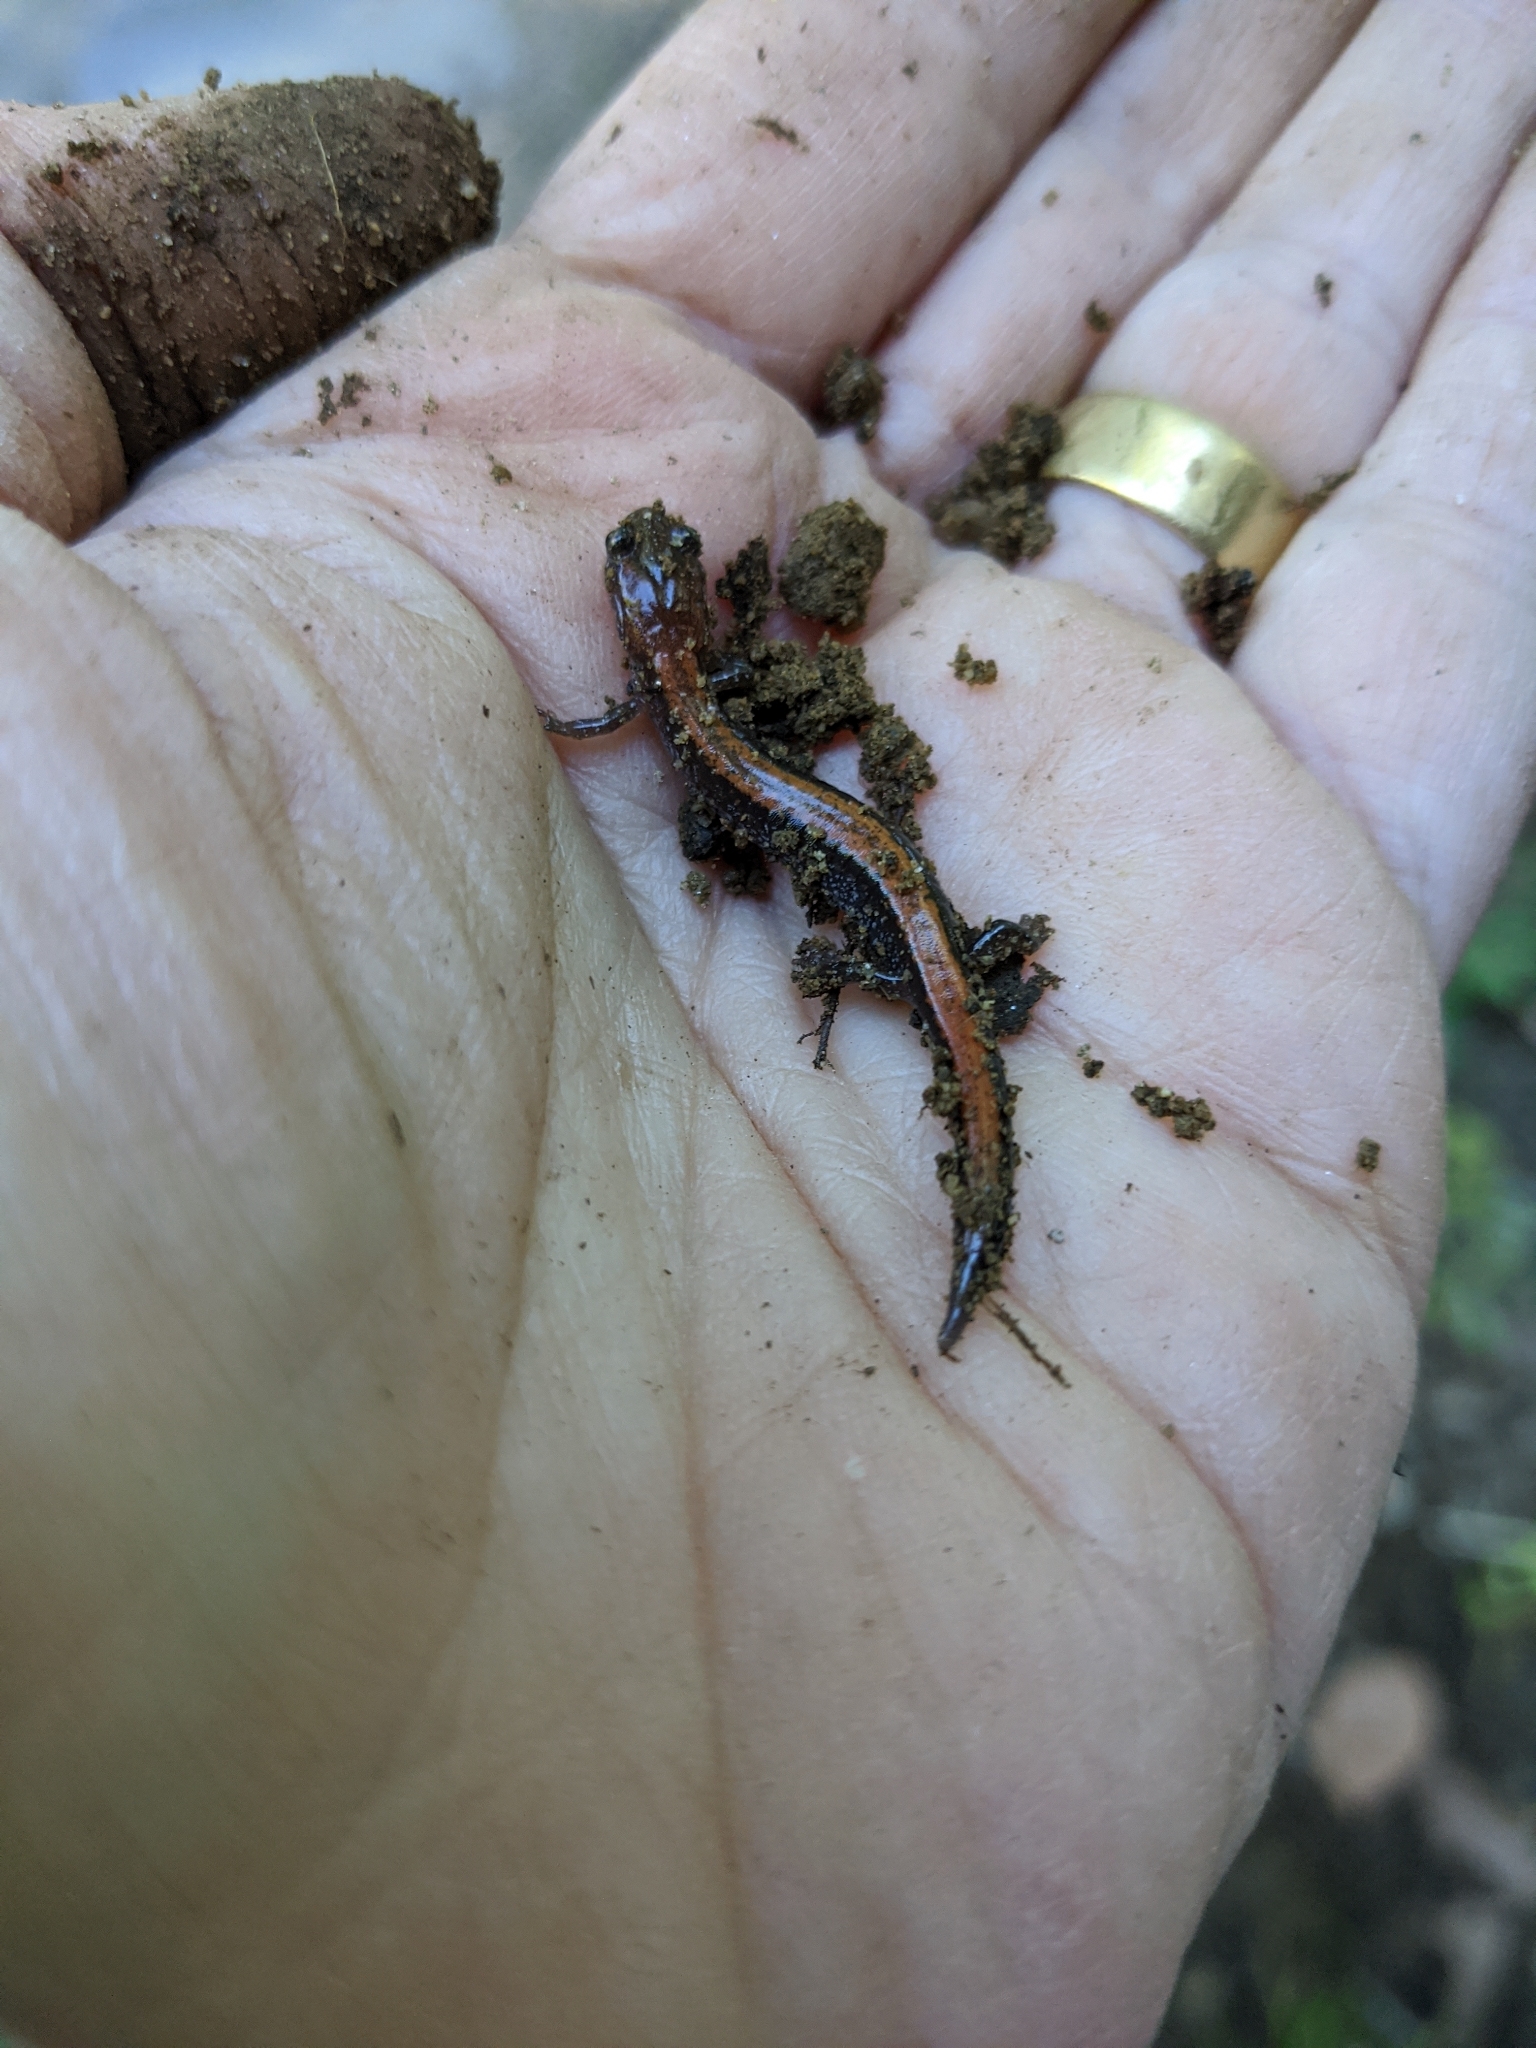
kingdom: Animalia
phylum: Chordata
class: Amphibia
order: Caudata
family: Plethodontidae
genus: Plethodon
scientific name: Plethodon cinereus
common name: Redback salamander
